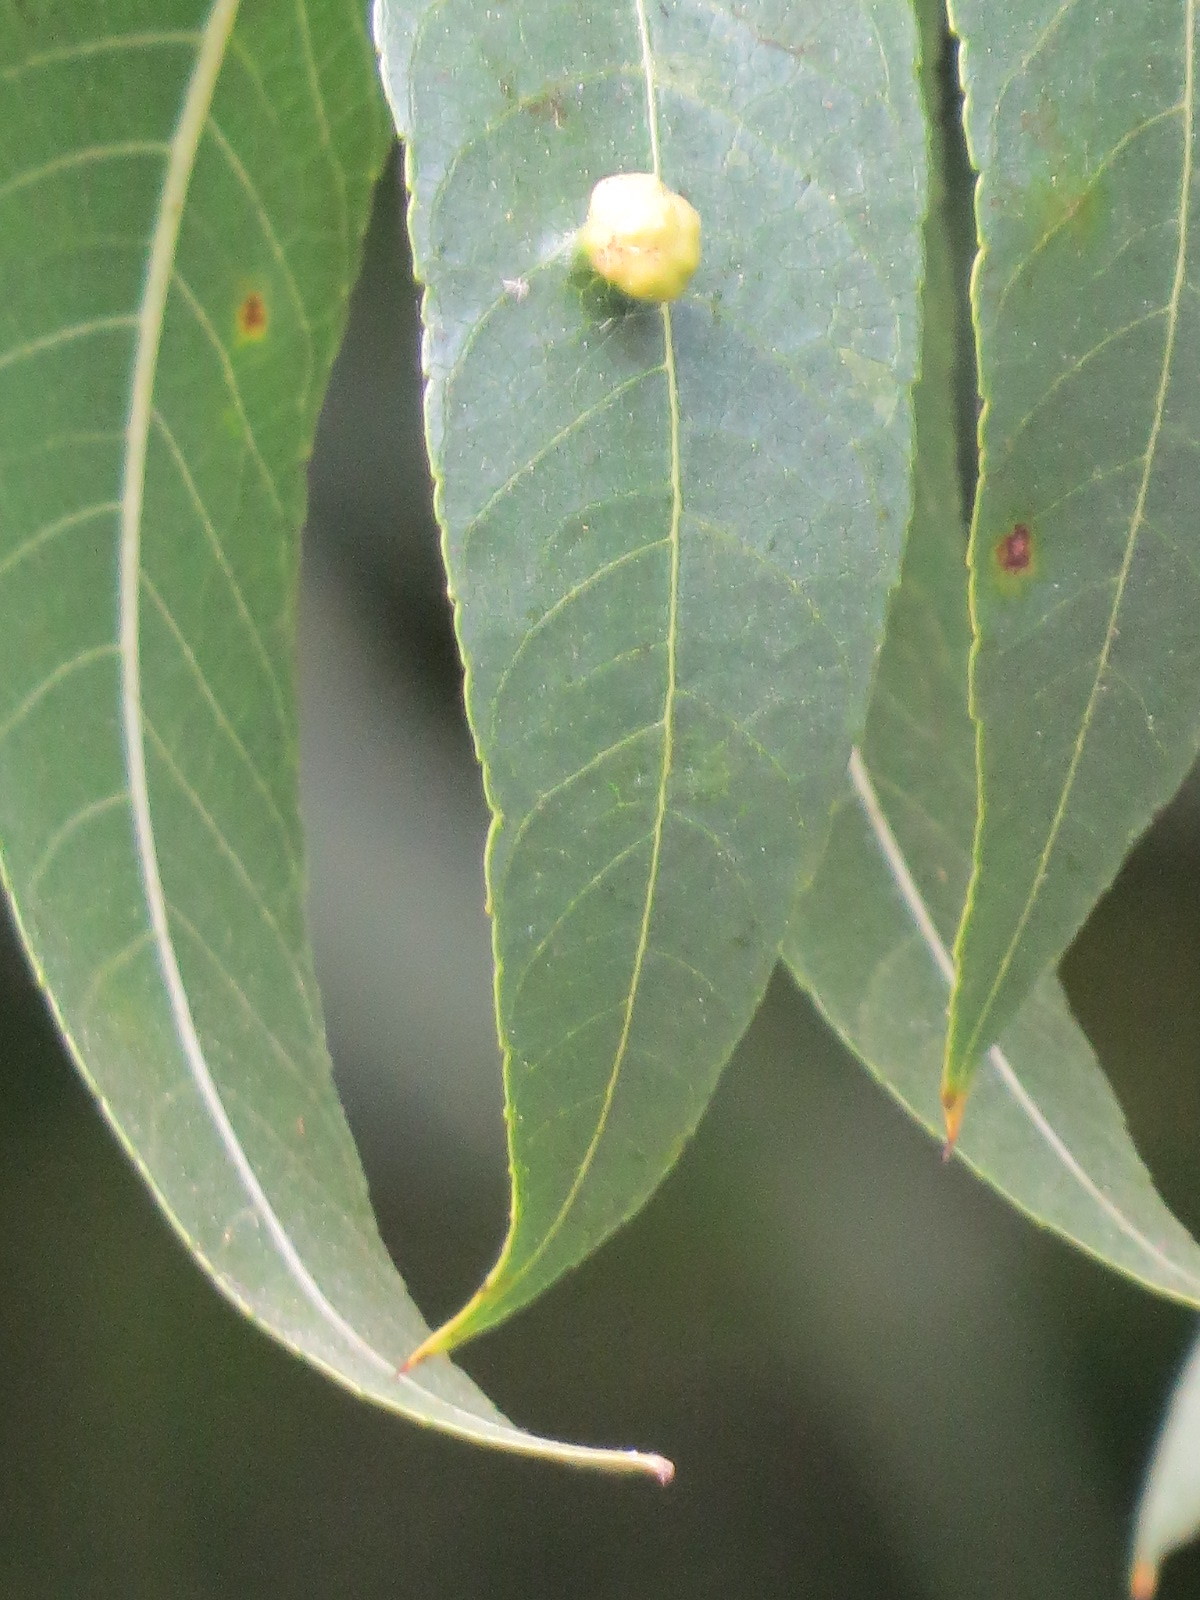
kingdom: Animalia
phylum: Arthropoda
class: Arachnida
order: Trombidiformes
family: Eriophyidae
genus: Aceria
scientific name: Aceria brachytarsus
